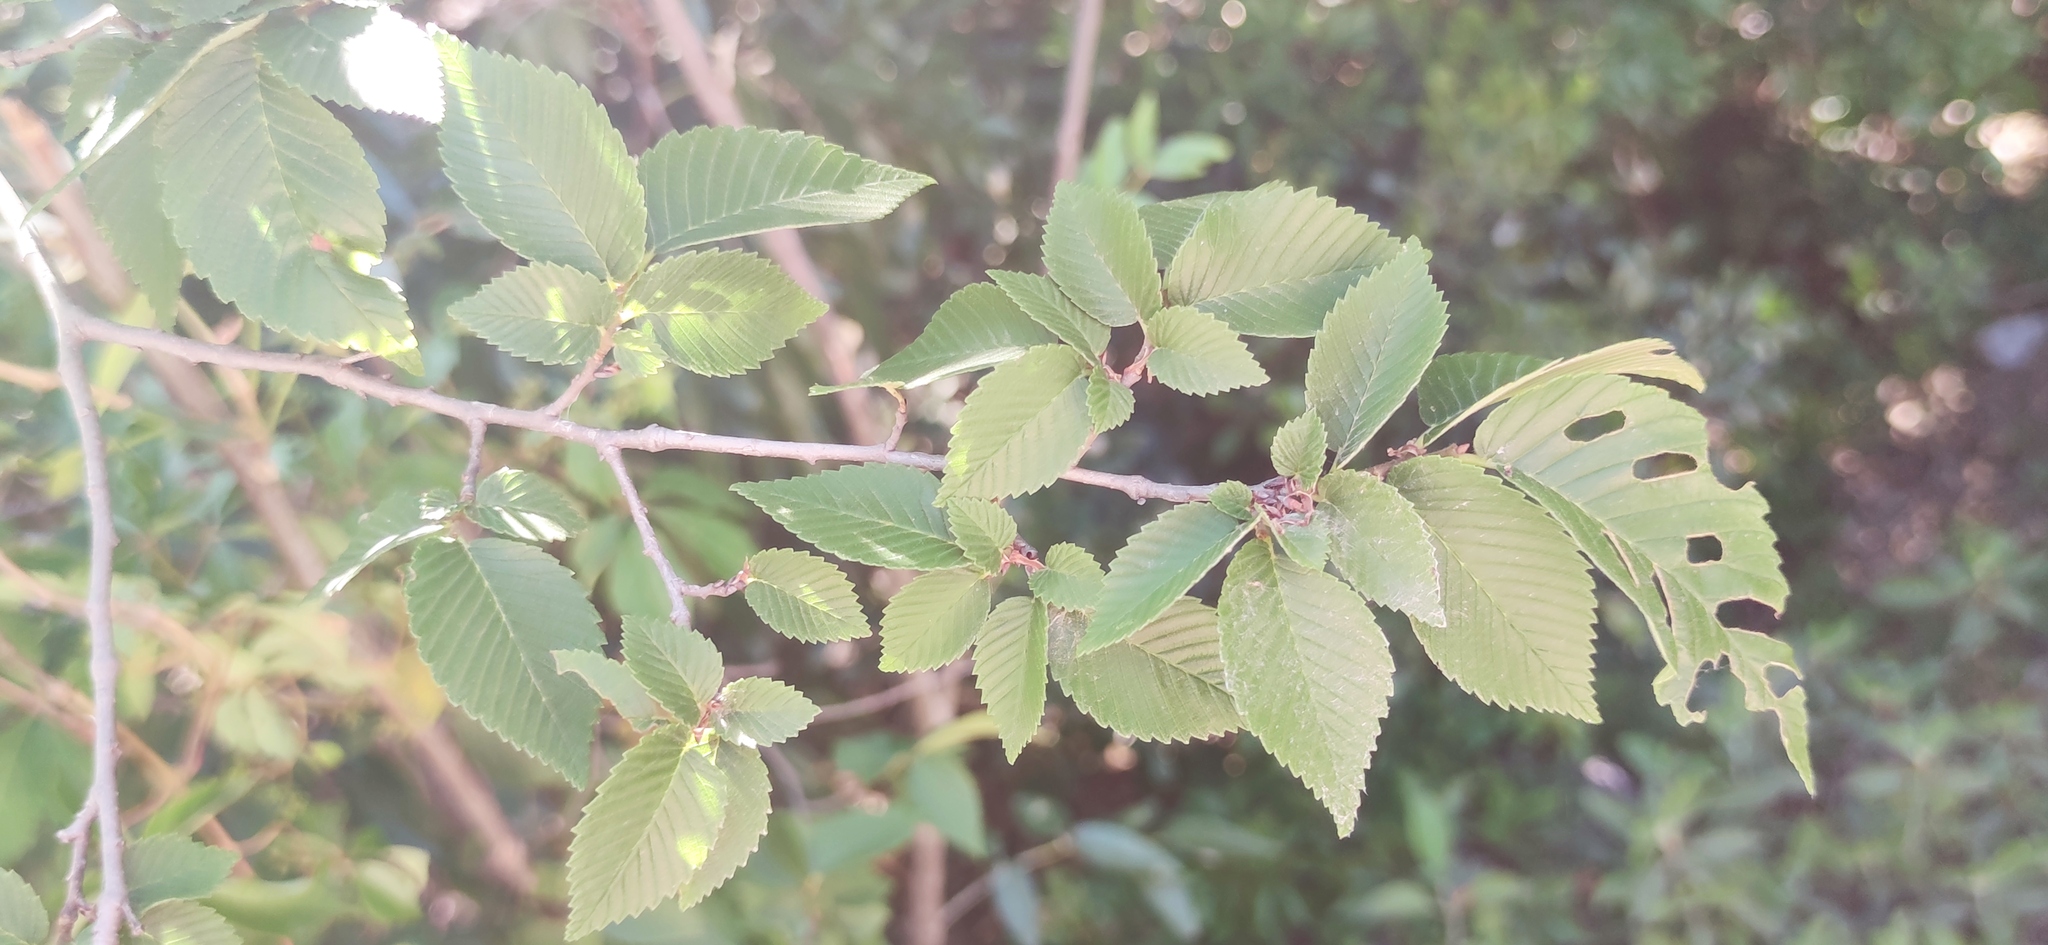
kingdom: Plantae
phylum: Tracheophyta
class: Magnoliopsida
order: Rosales
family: Ulmaceae
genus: Ulmus
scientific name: Ulmus crassifolia
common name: Basket elm
